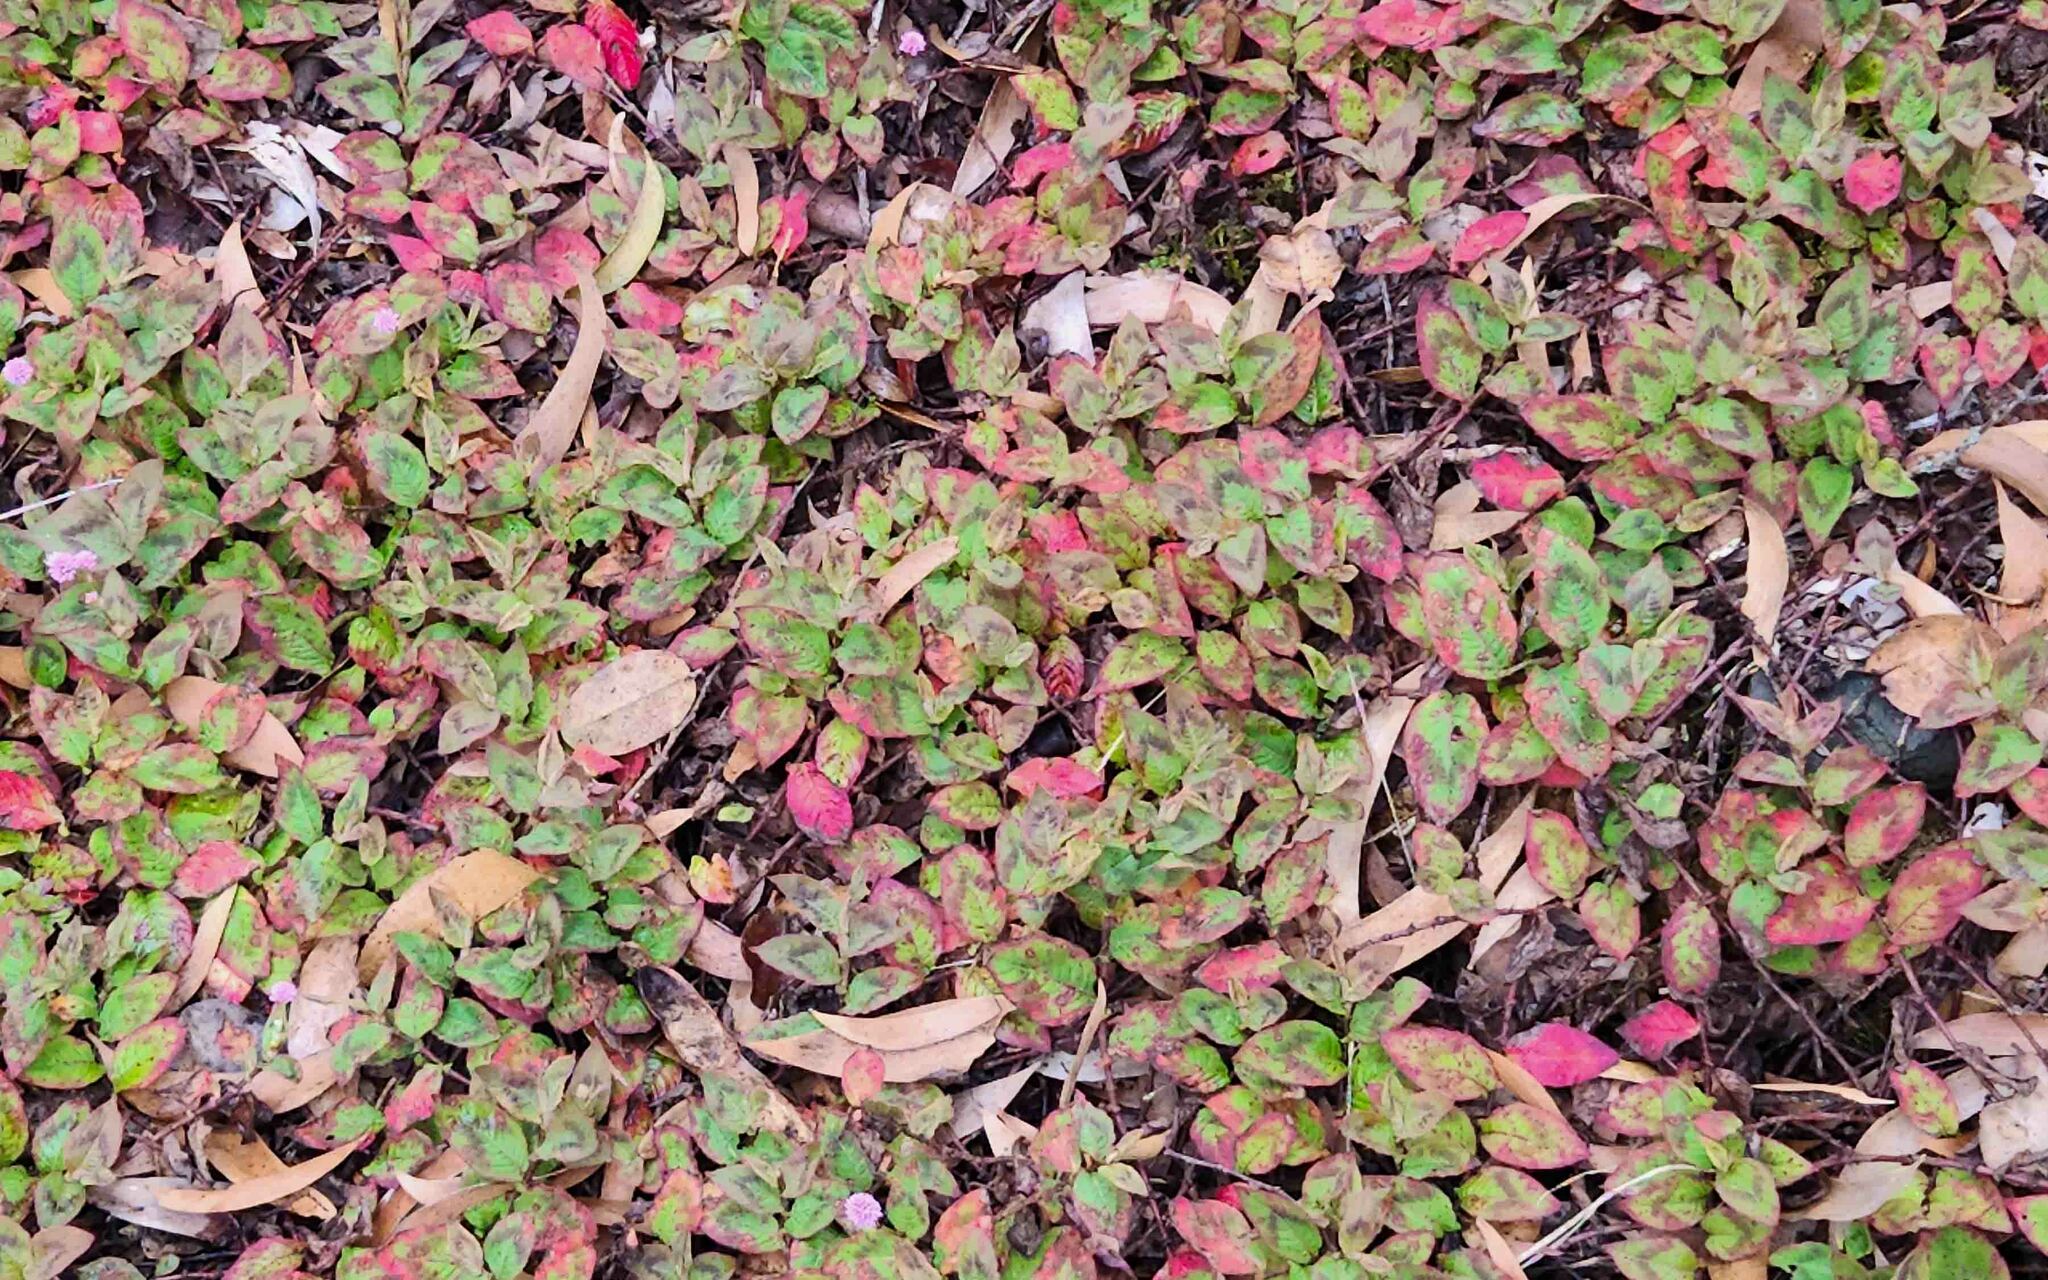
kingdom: Plantae
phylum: Tracheophyta
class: Magnoliopsida
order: Caryophyllales
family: Polygonaceae
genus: Persicaria
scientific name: Persicaria capitata
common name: Pinkhead smartweed
